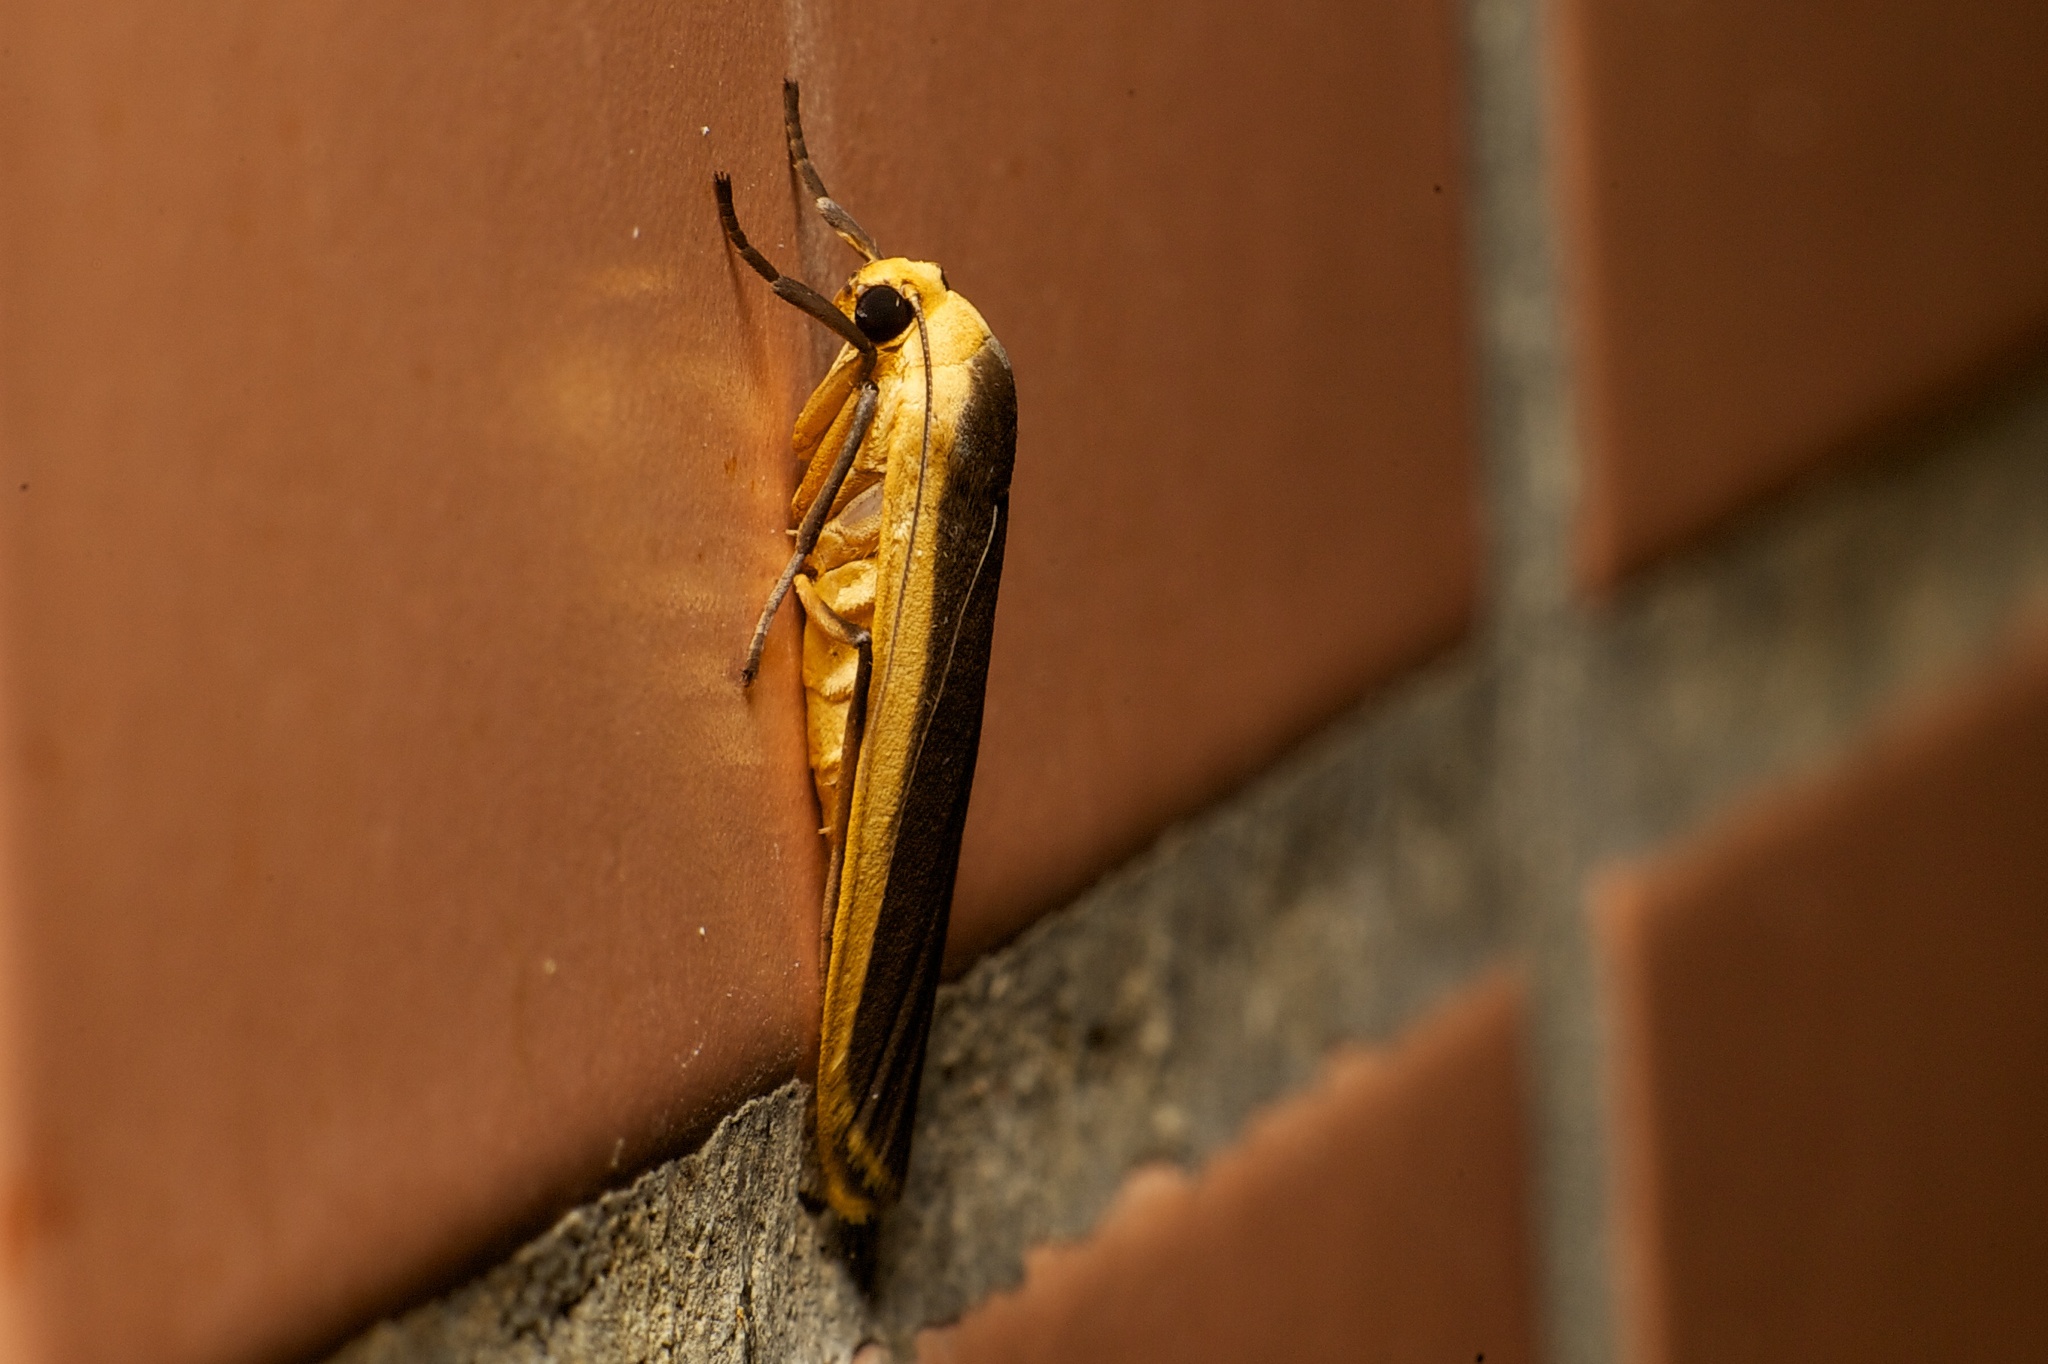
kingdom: Animalia
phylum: Arthropoda
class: Insecta
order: Lepidoptera
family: Erebidae
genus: Brunia
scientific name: Brunia antica
